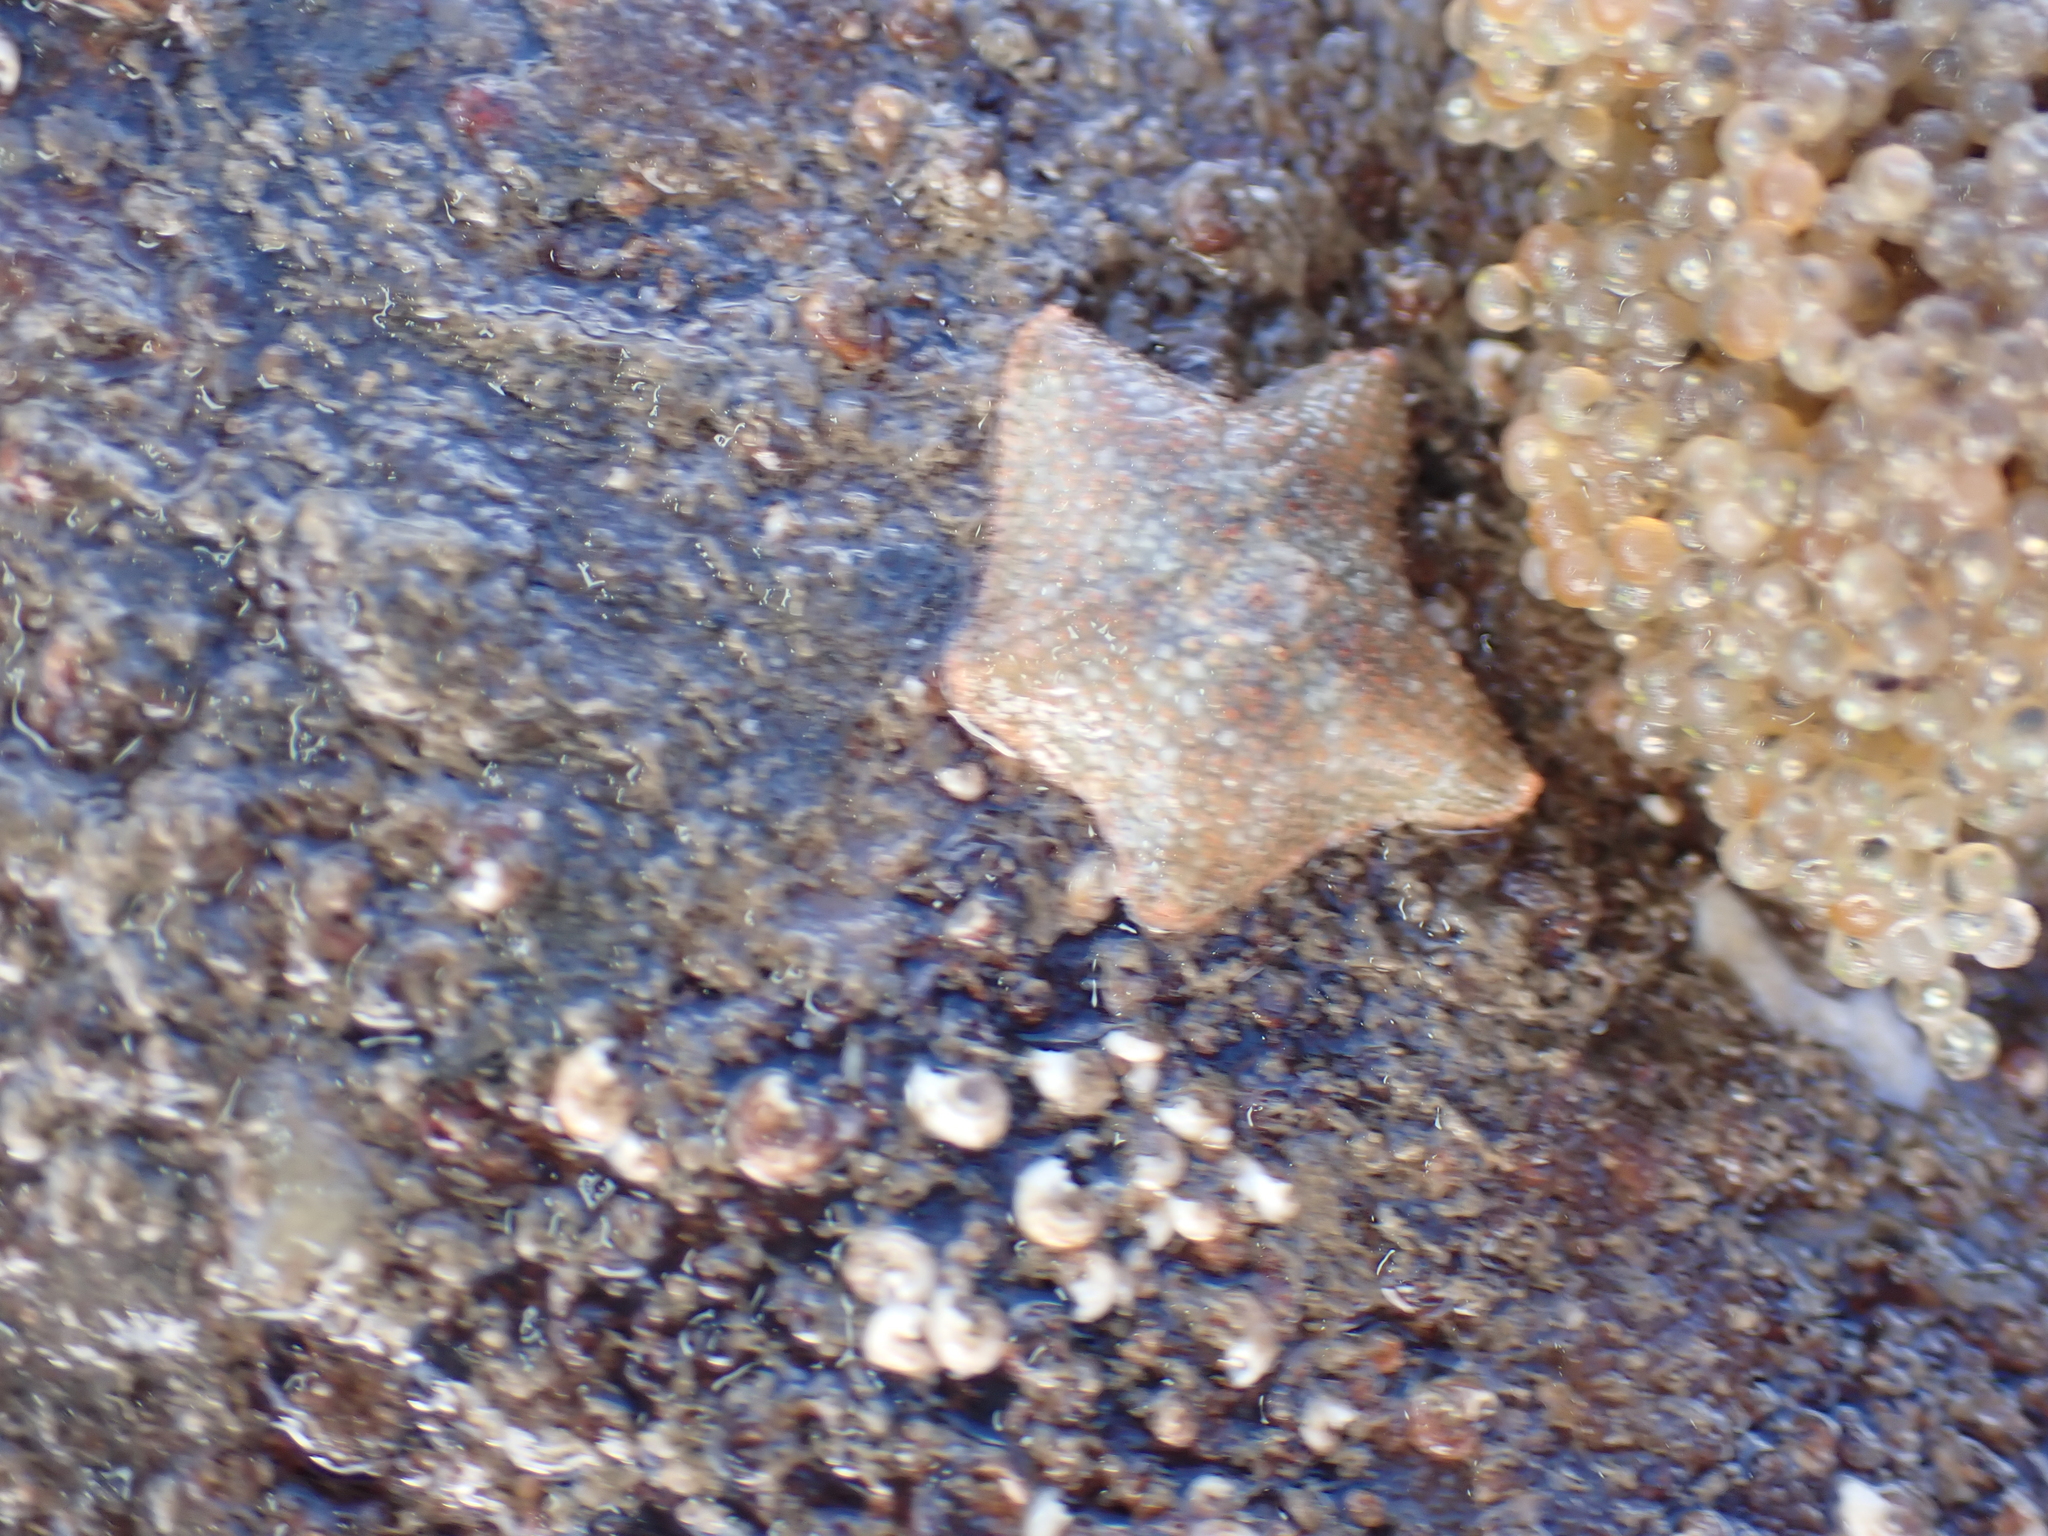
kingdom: Animalia
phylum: Echinodermata
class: Asteroidea
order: Valvatida
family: Asterinidae
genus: Asterina
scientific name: Asterina gibbosa
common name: Cushion star
